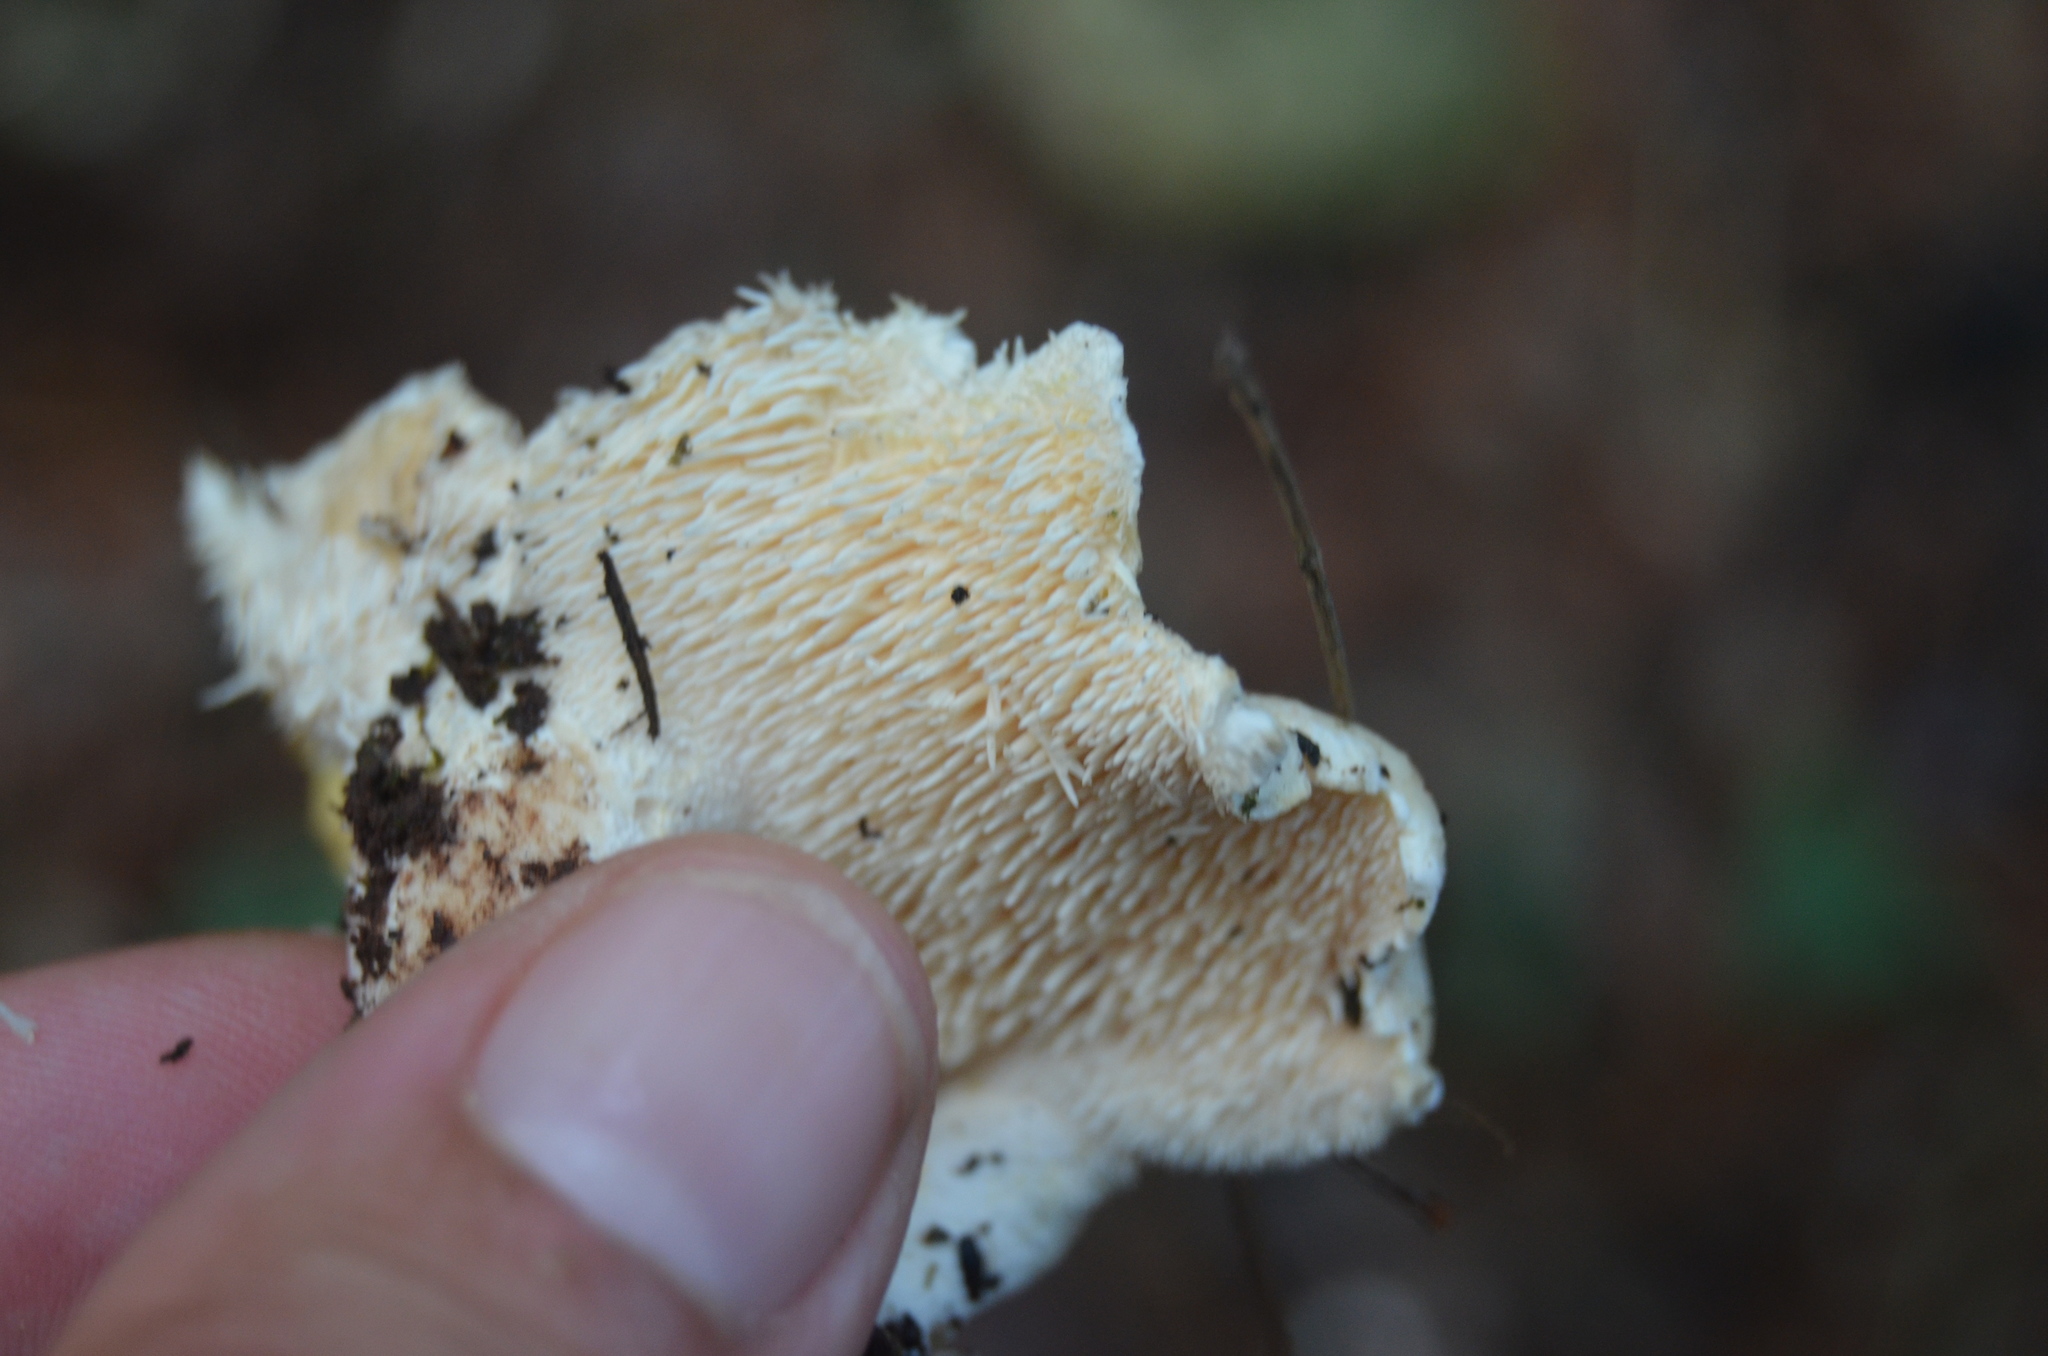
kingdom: Fungi
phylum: Basidiomycota
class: Agaricomycetes
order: Cantharellales
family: Hydnaceae
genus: Hydnum
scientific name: Hydnum repandum
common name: Wood hedgehog
